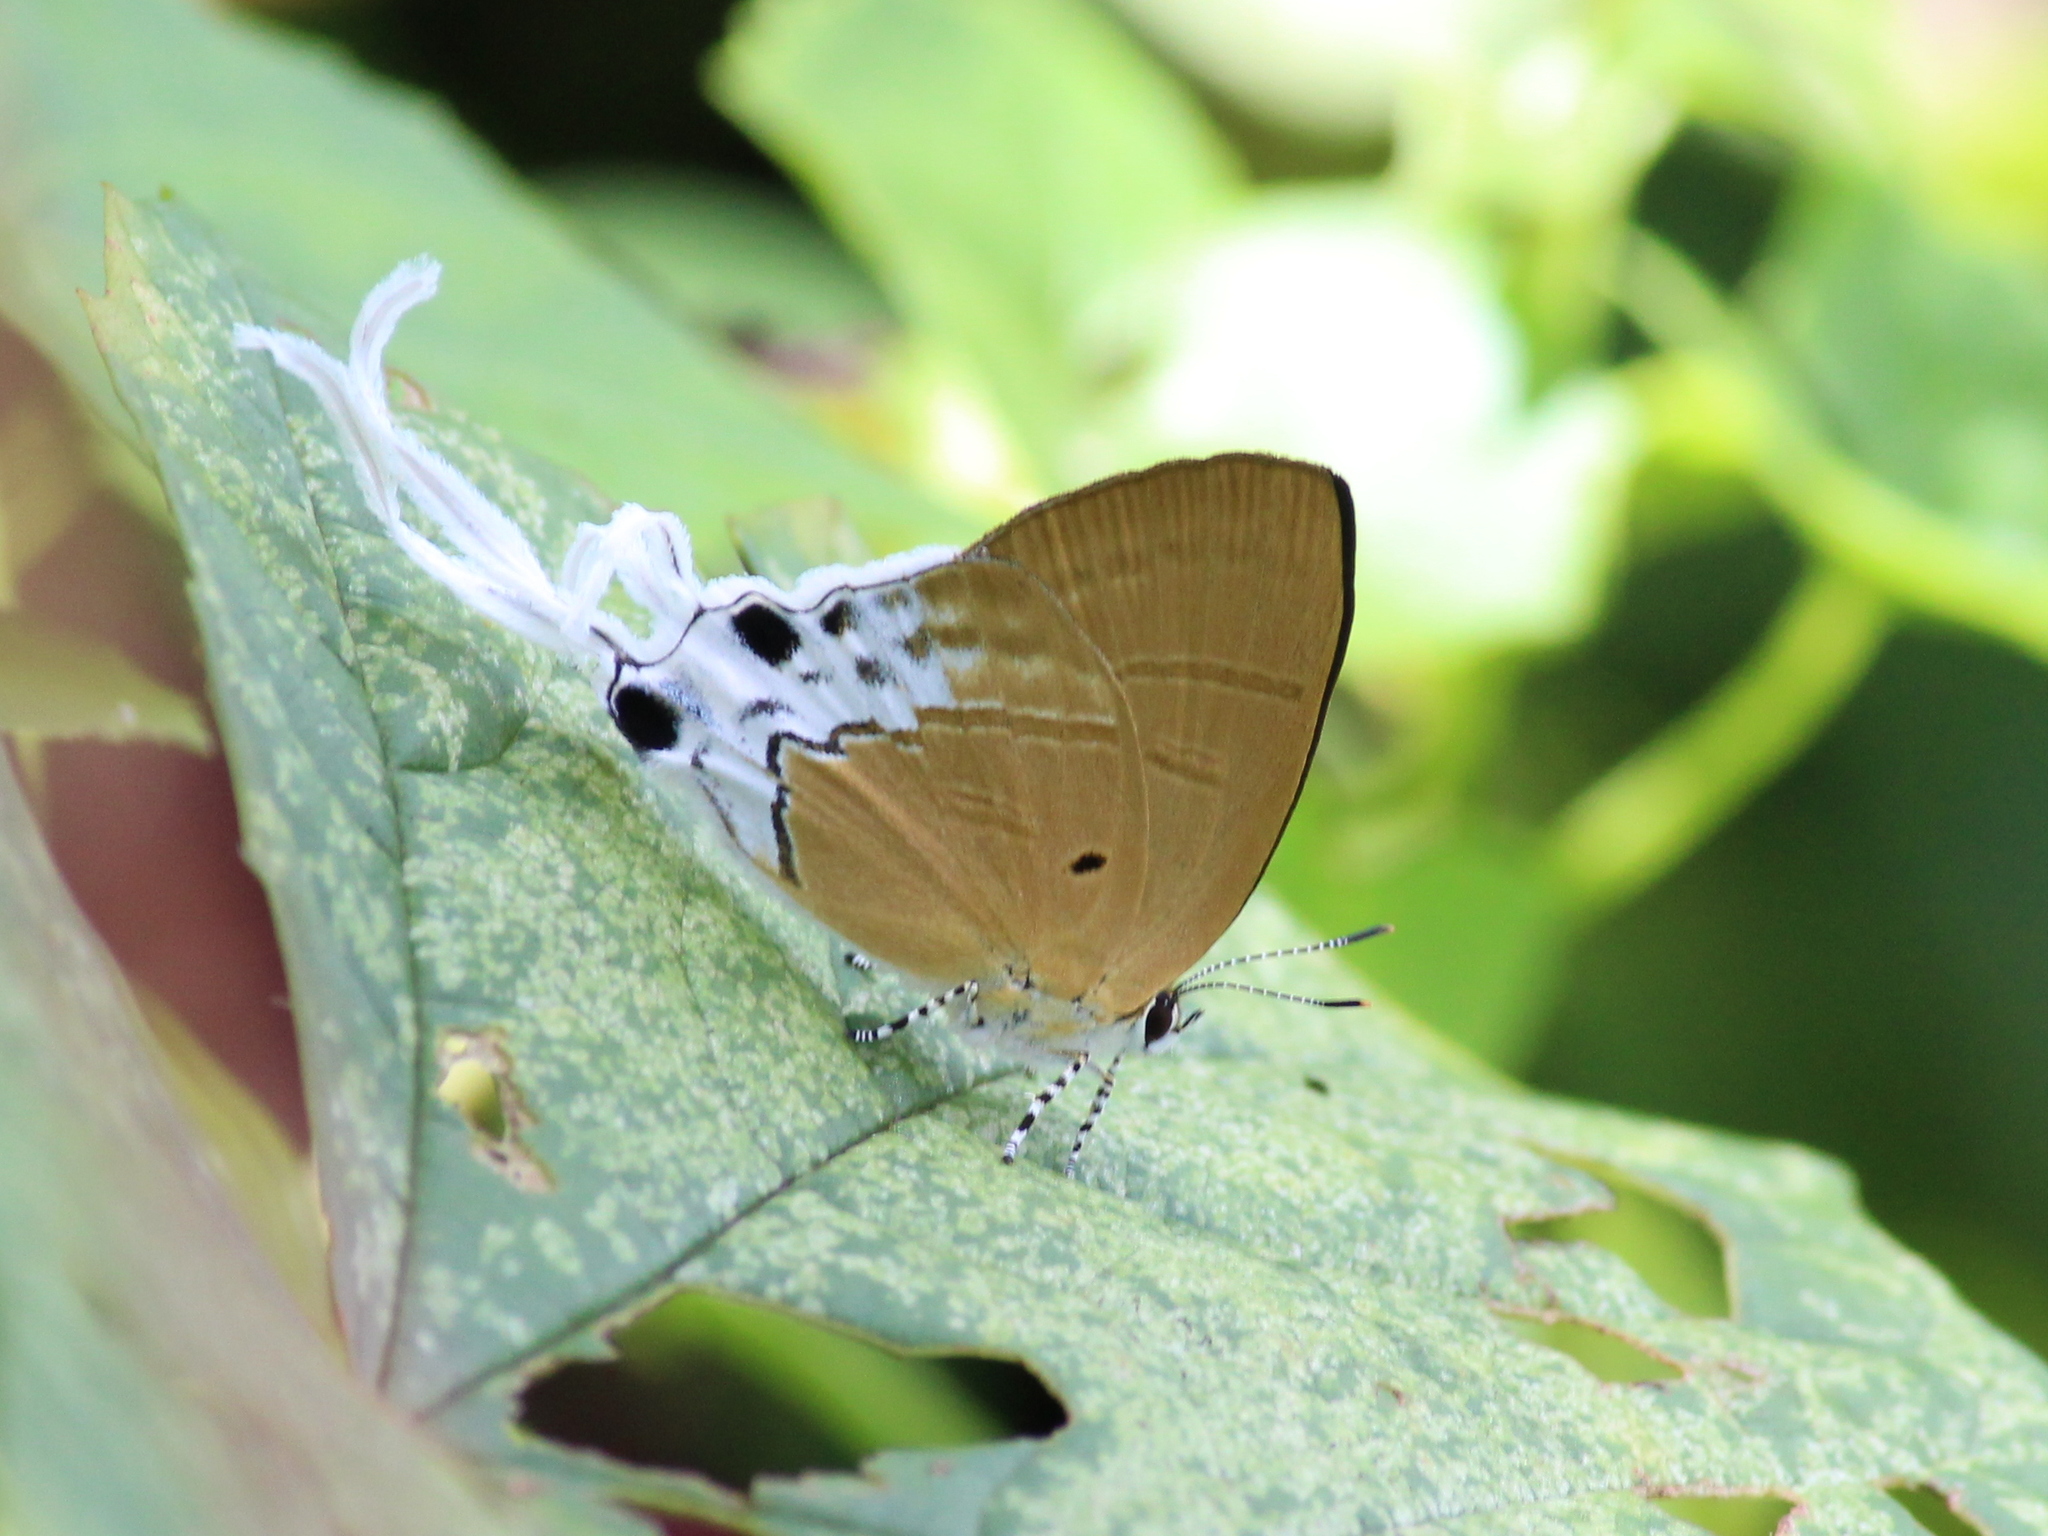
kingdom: Animalia
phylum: Arthropoda
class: Insecta
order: Lepidoptera
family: Lycaenidae
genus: Zeltus
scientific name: Zeltus amasa
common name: Fluffy tit
